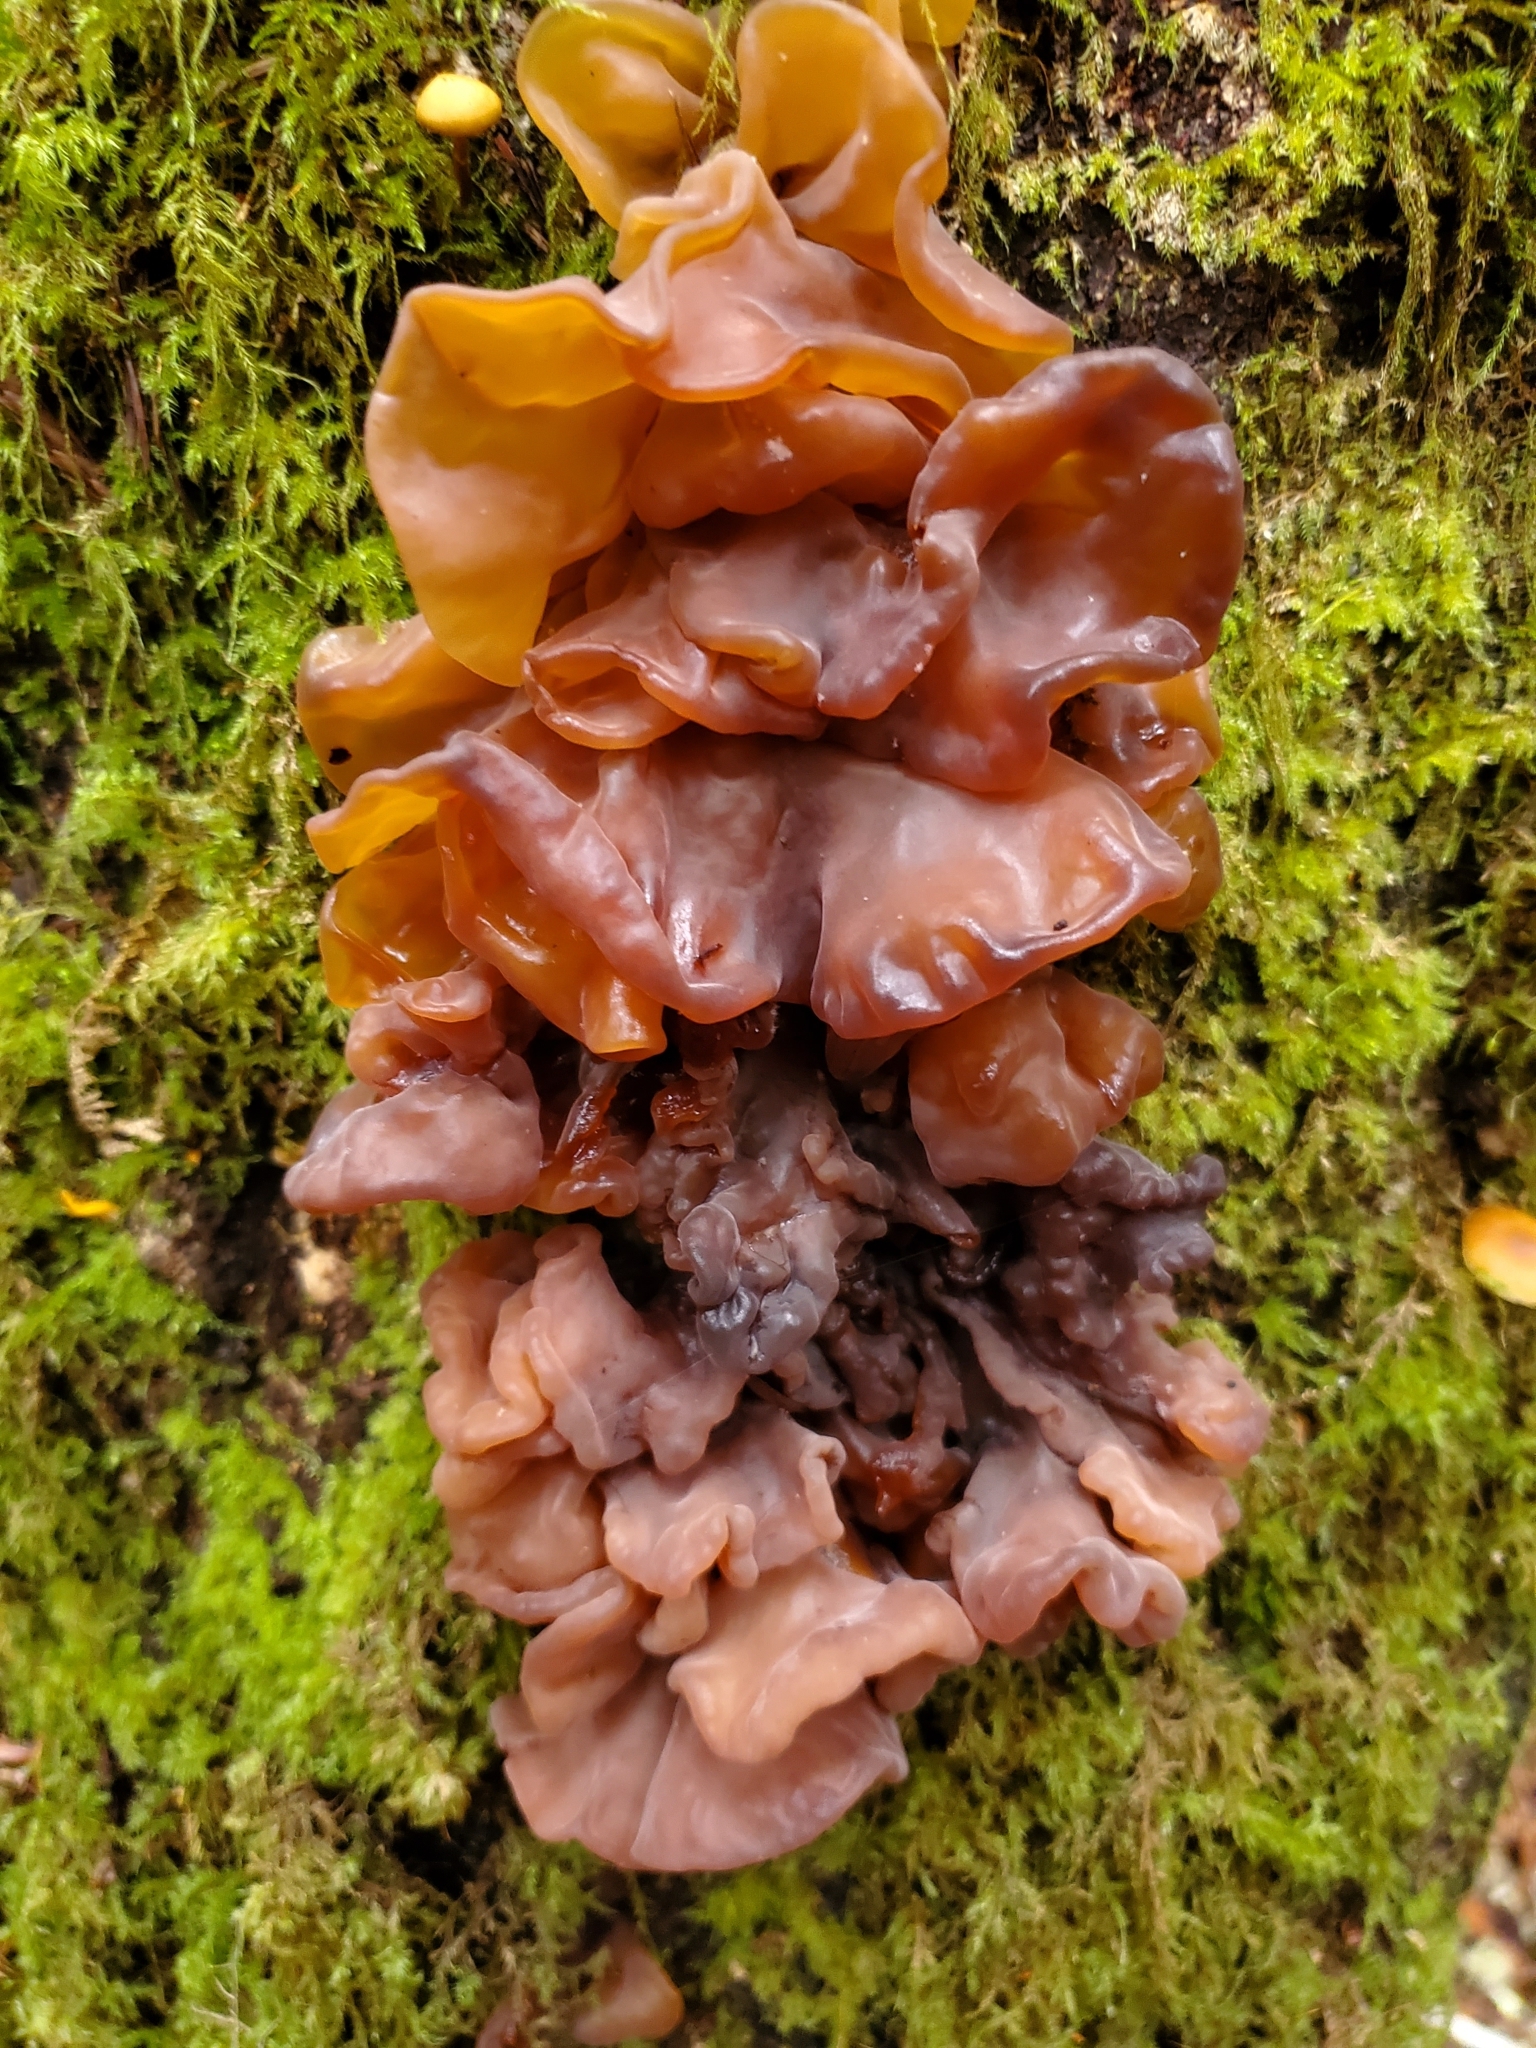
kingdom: Fungi
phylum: Basidiomycota
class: Tremellomycetes
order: Tremellales
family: Tremellaceae
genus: Phaeotremella
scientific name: Phaeotremella foliacea
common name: Leafy brain
